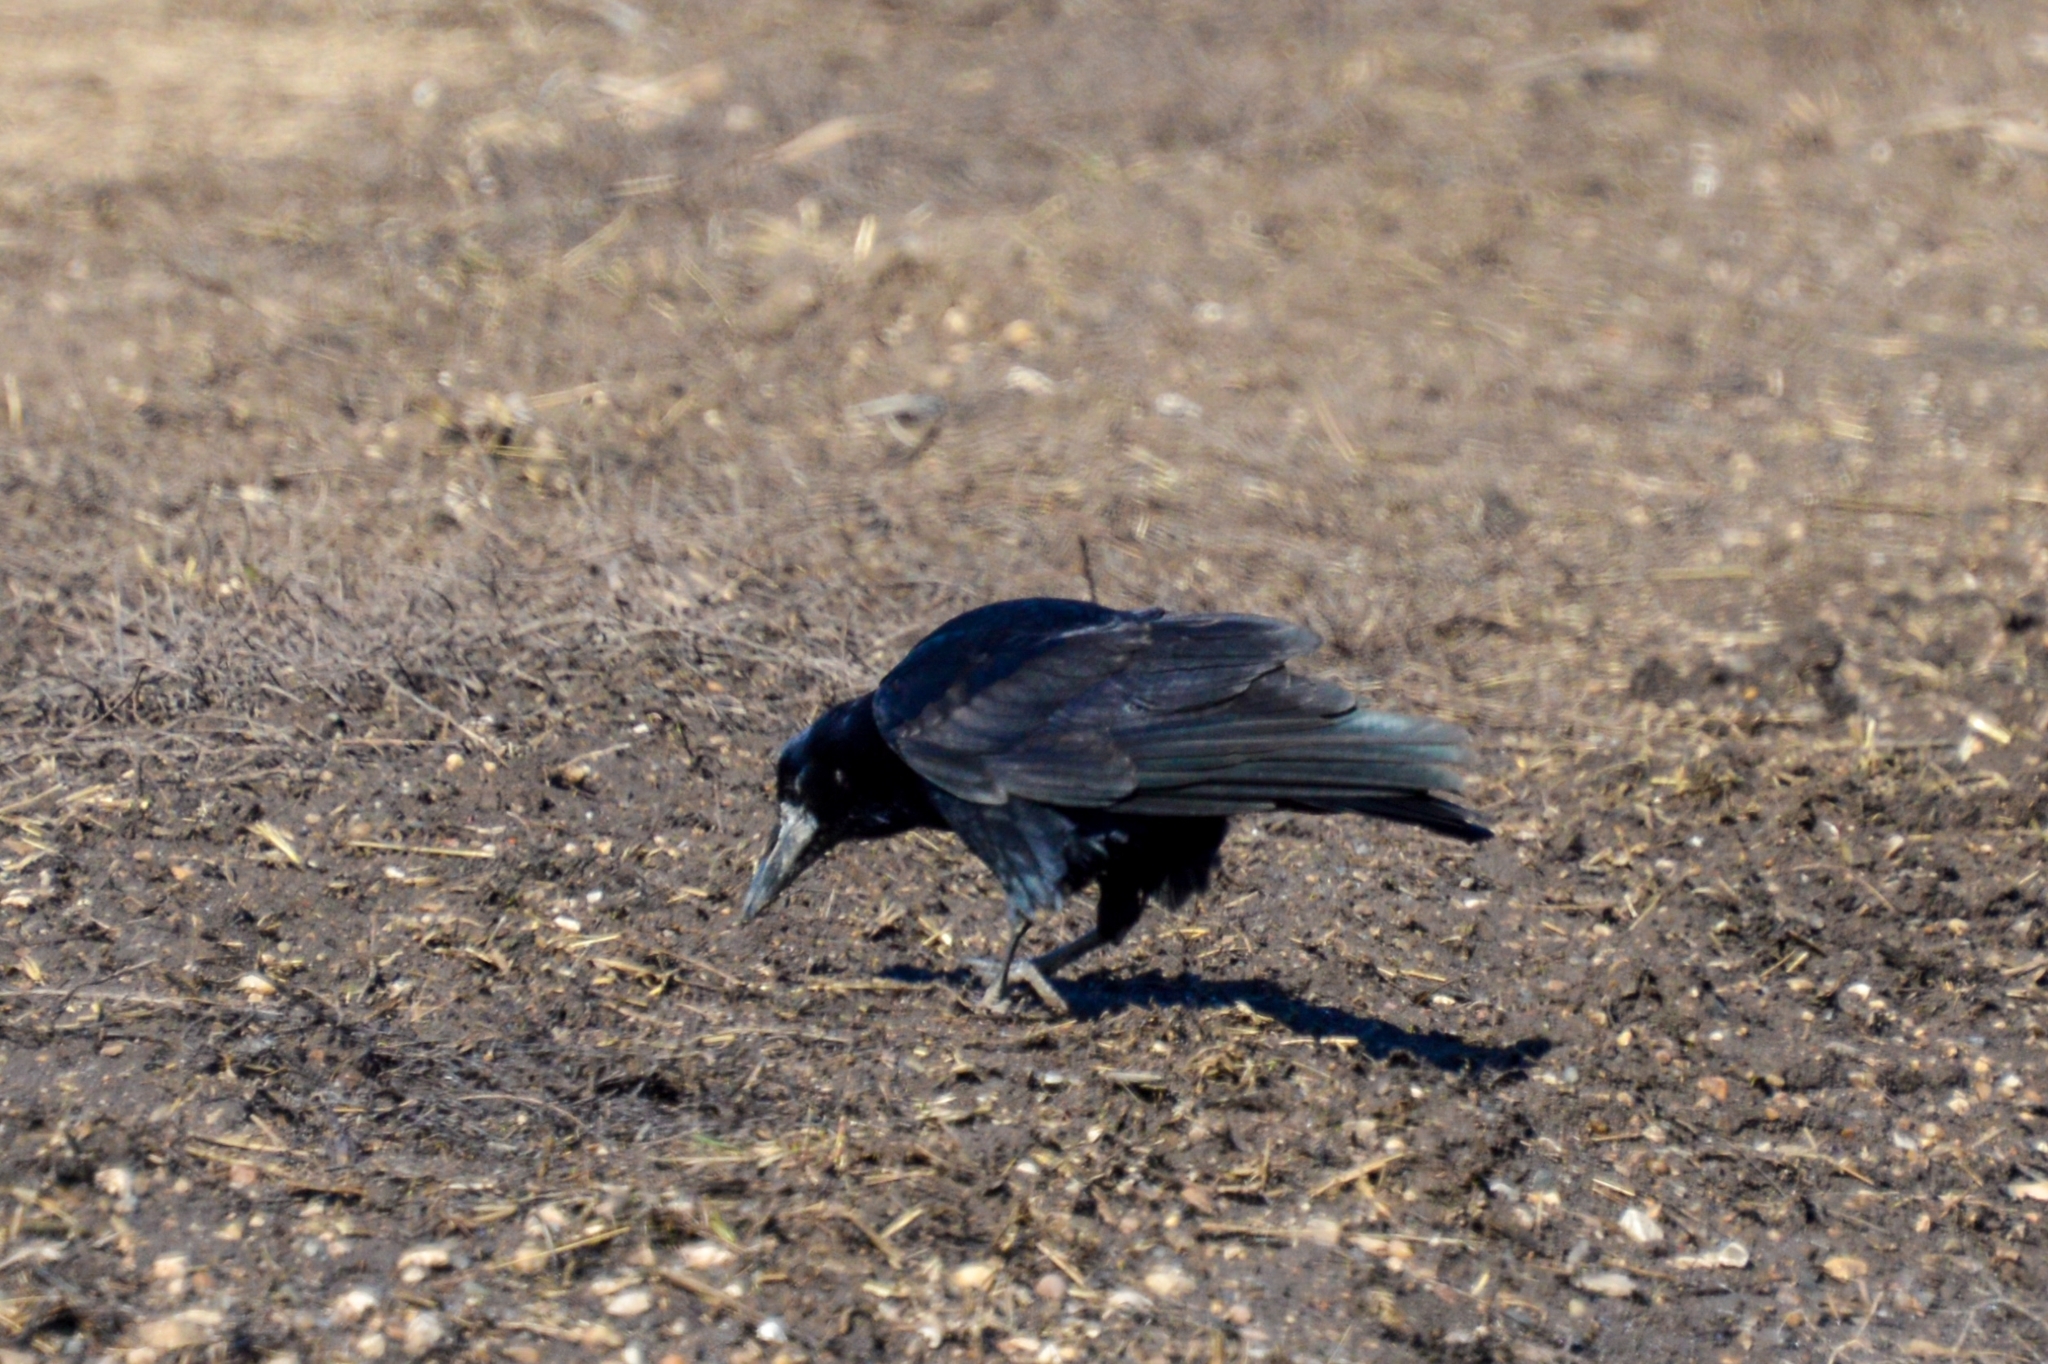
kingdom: Animalia
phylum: Chordata
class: Aves
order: Passeriformes
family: Corvidae
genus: Corvus
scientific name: Corvus frugilegus
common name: Rook
